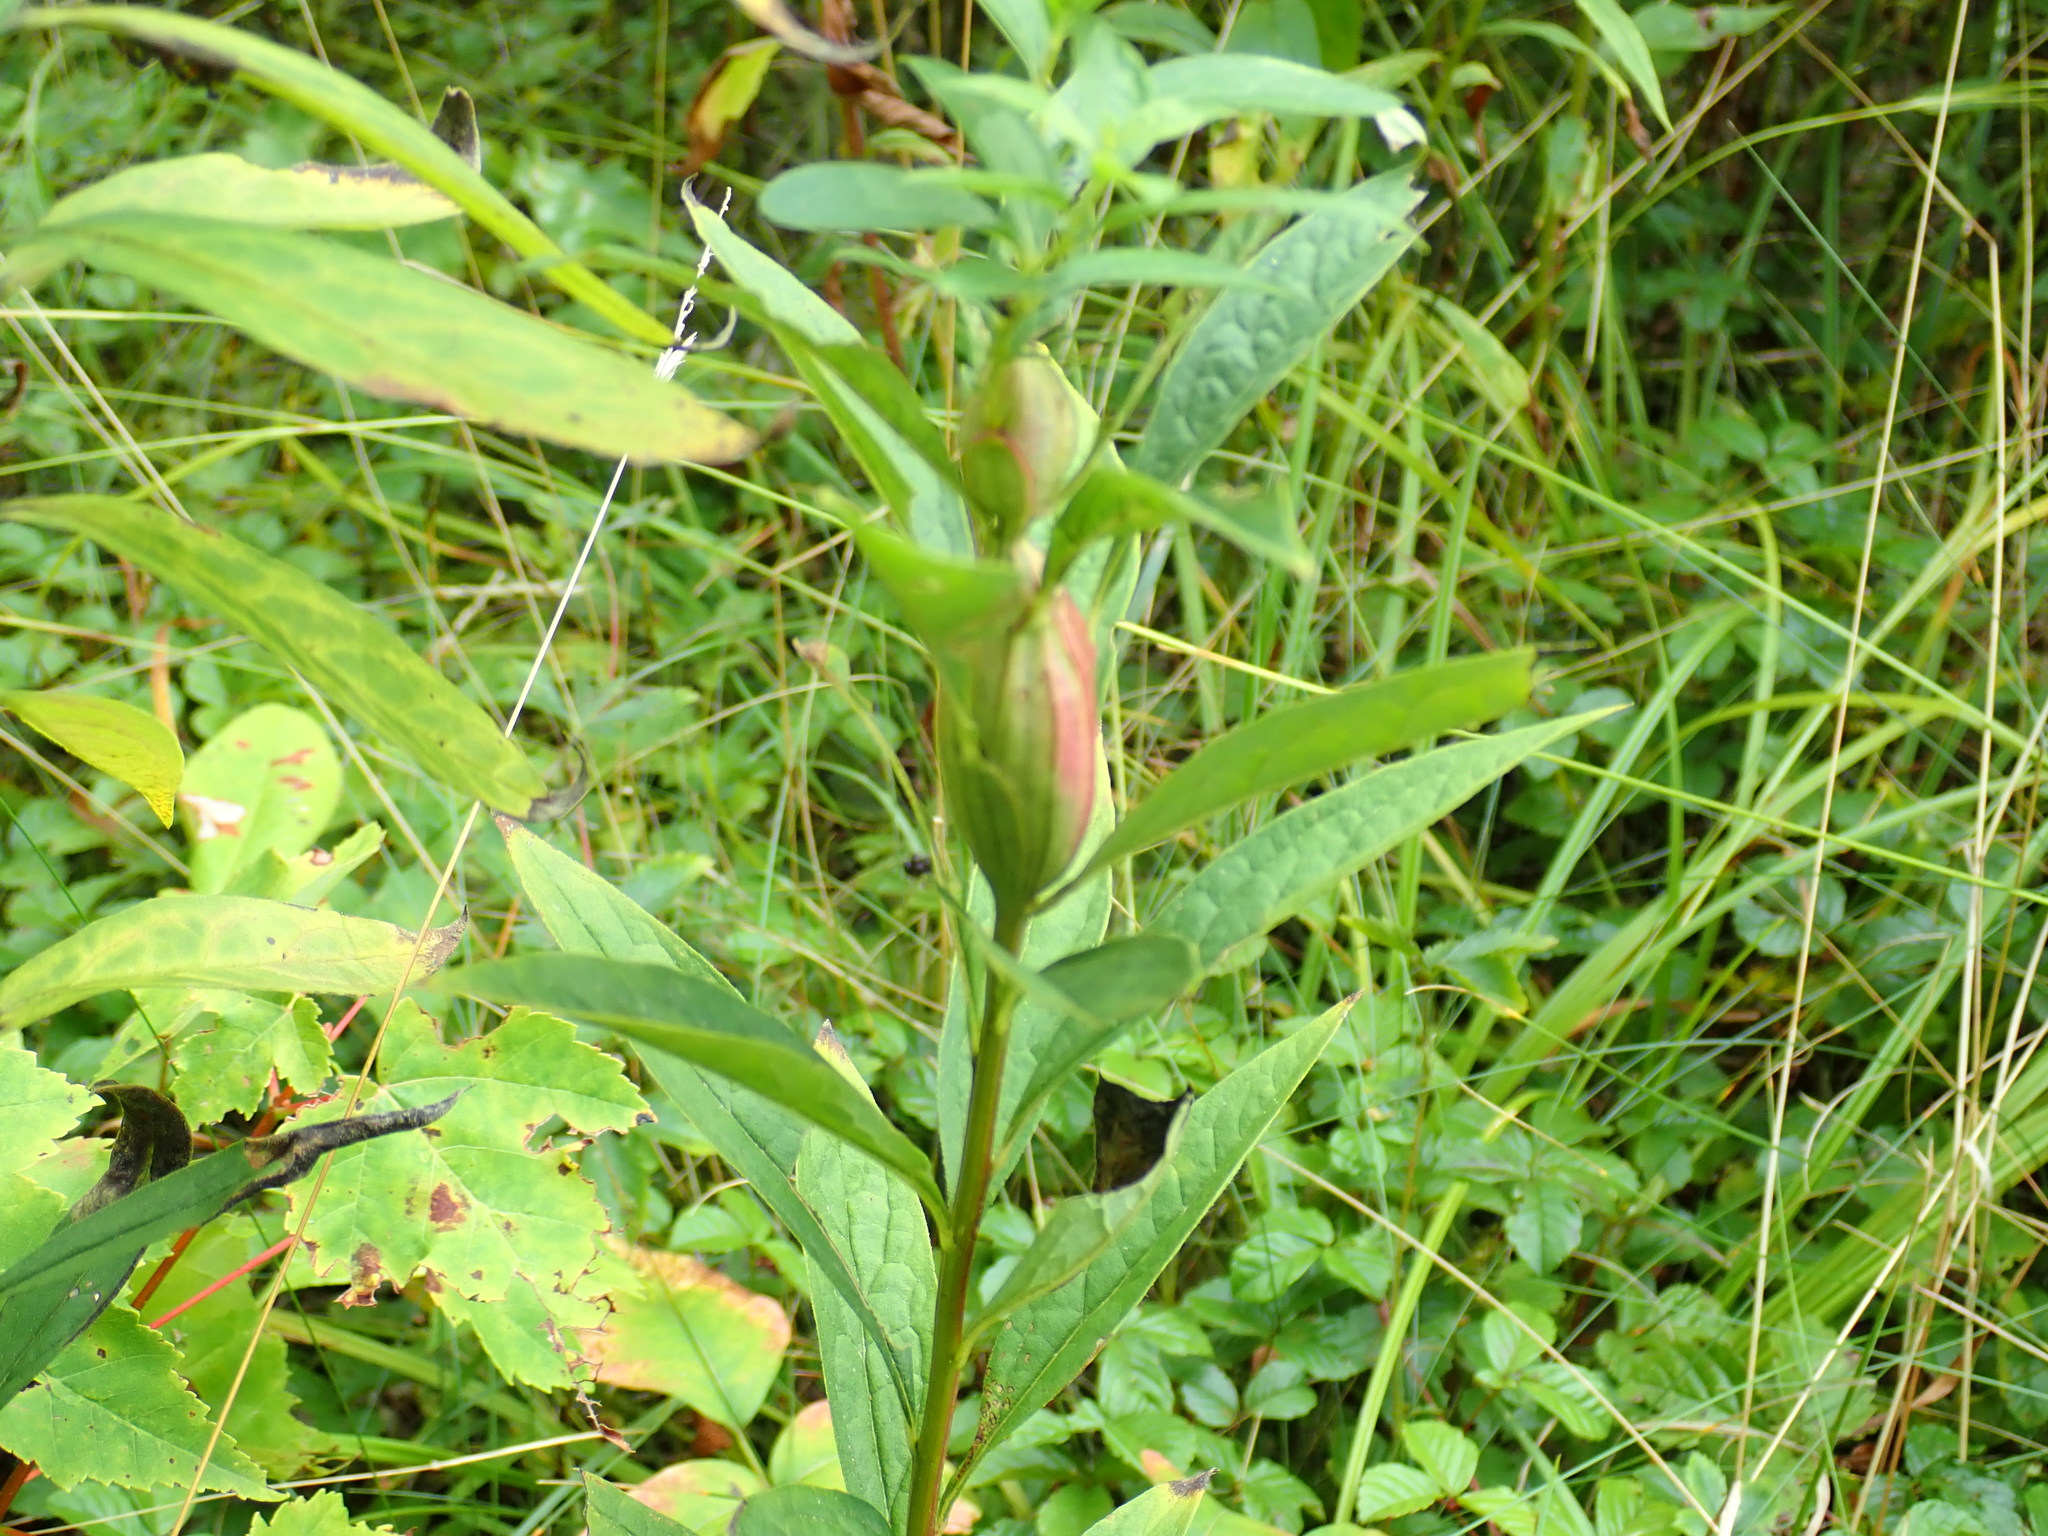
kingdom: Animalia
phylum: Arthropoda
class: Insecta
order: Lepidoptera
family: Gelechiidae
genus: Gnorimoschema
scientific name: Gnorimoschema
